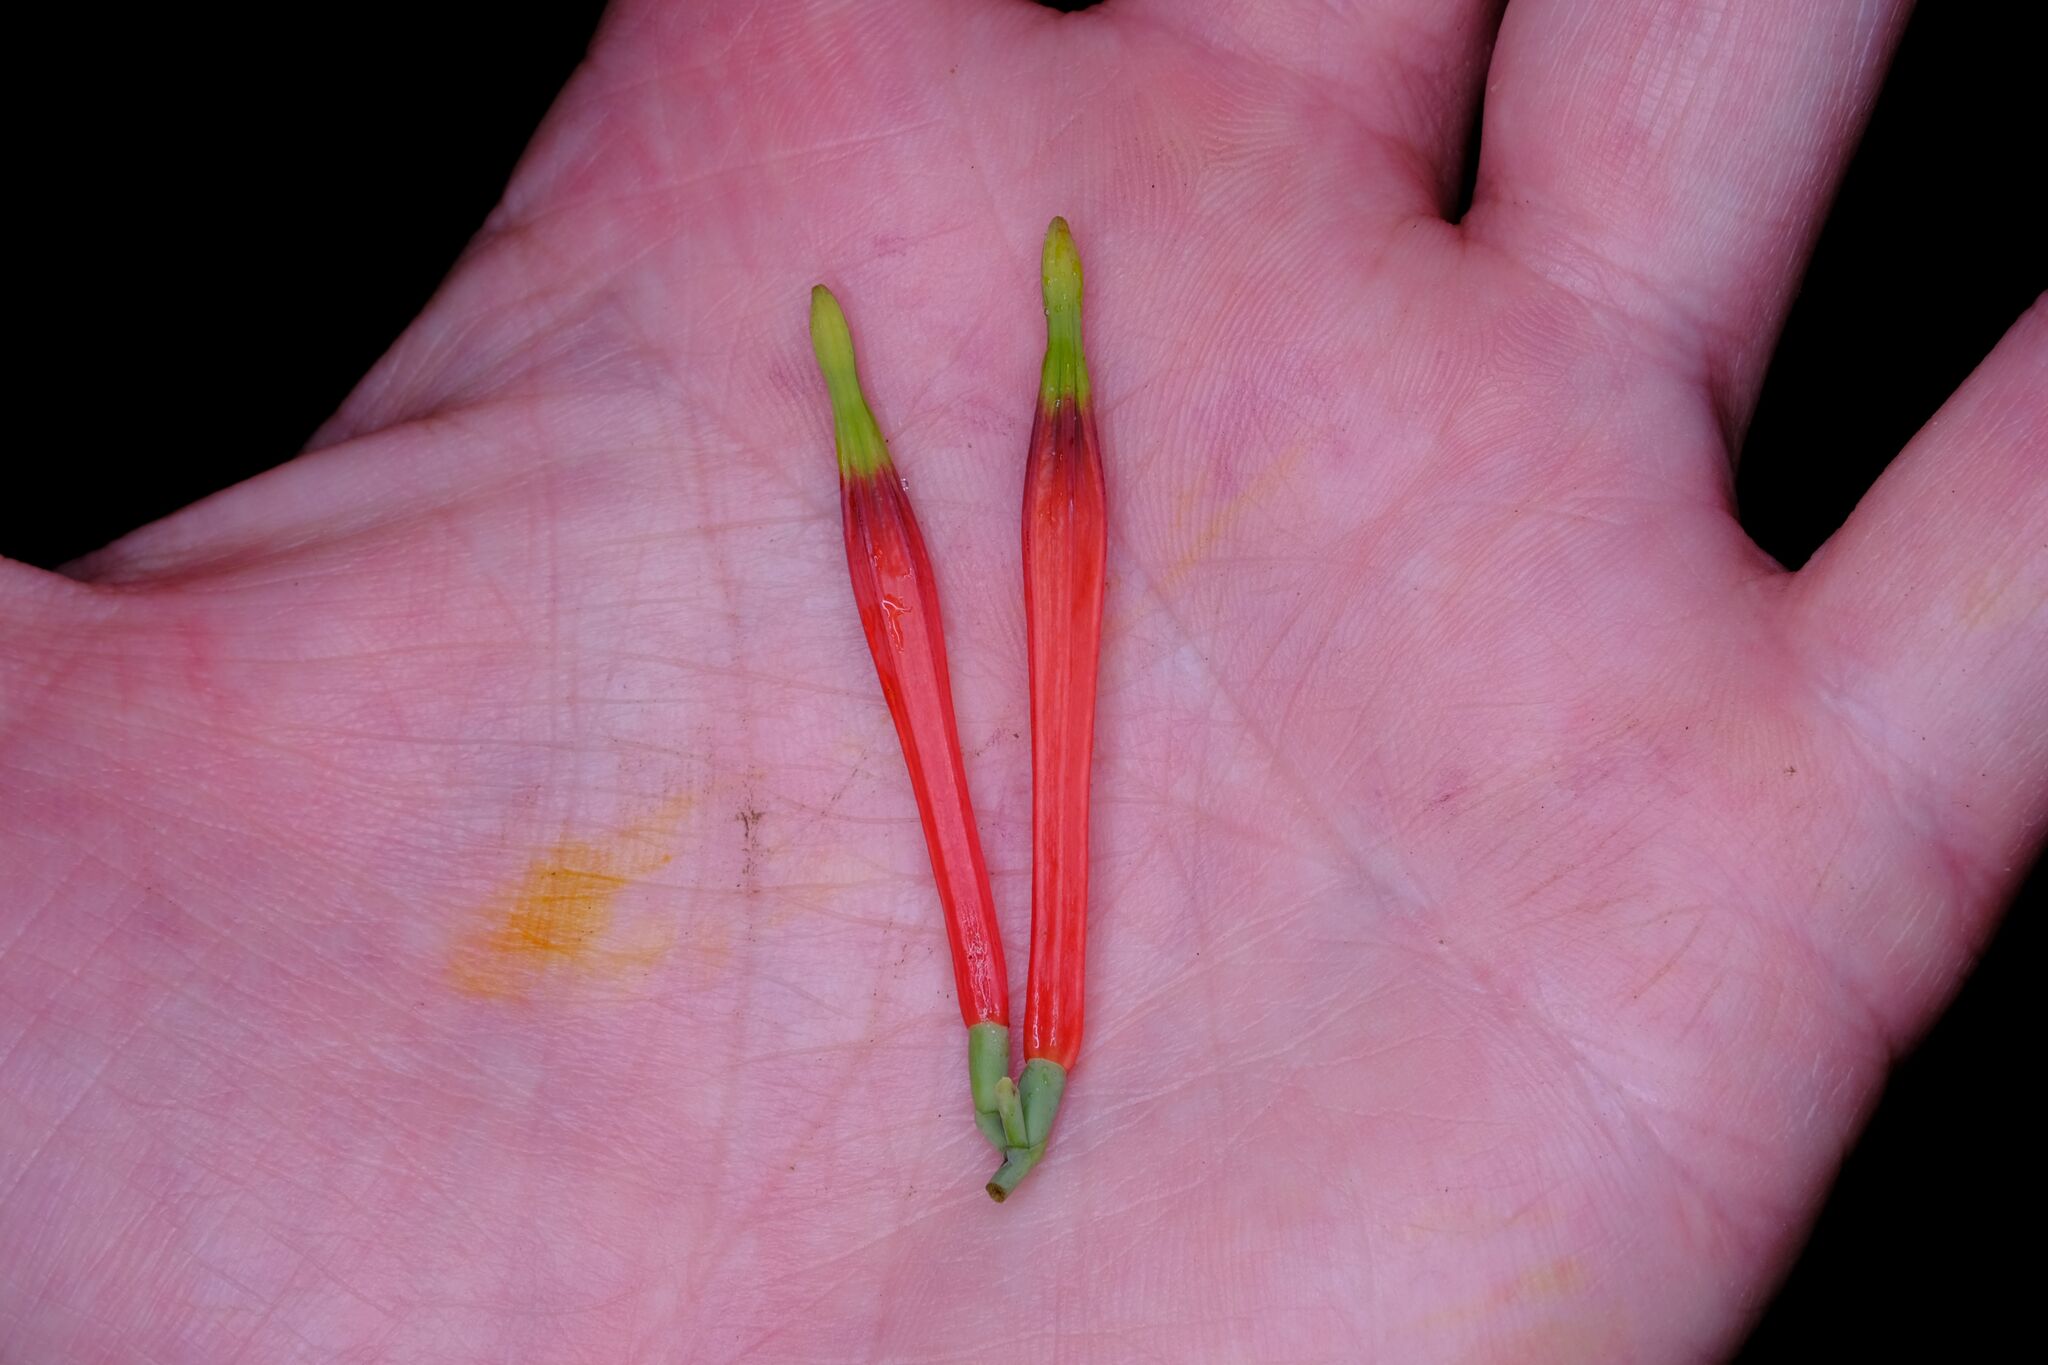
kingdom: Plantae
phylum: Tracheophyta
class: Magnoliopsida
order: Santalales
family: Loranthaceae
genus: Amylotheca
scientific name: Amylotheca dictyophleba
